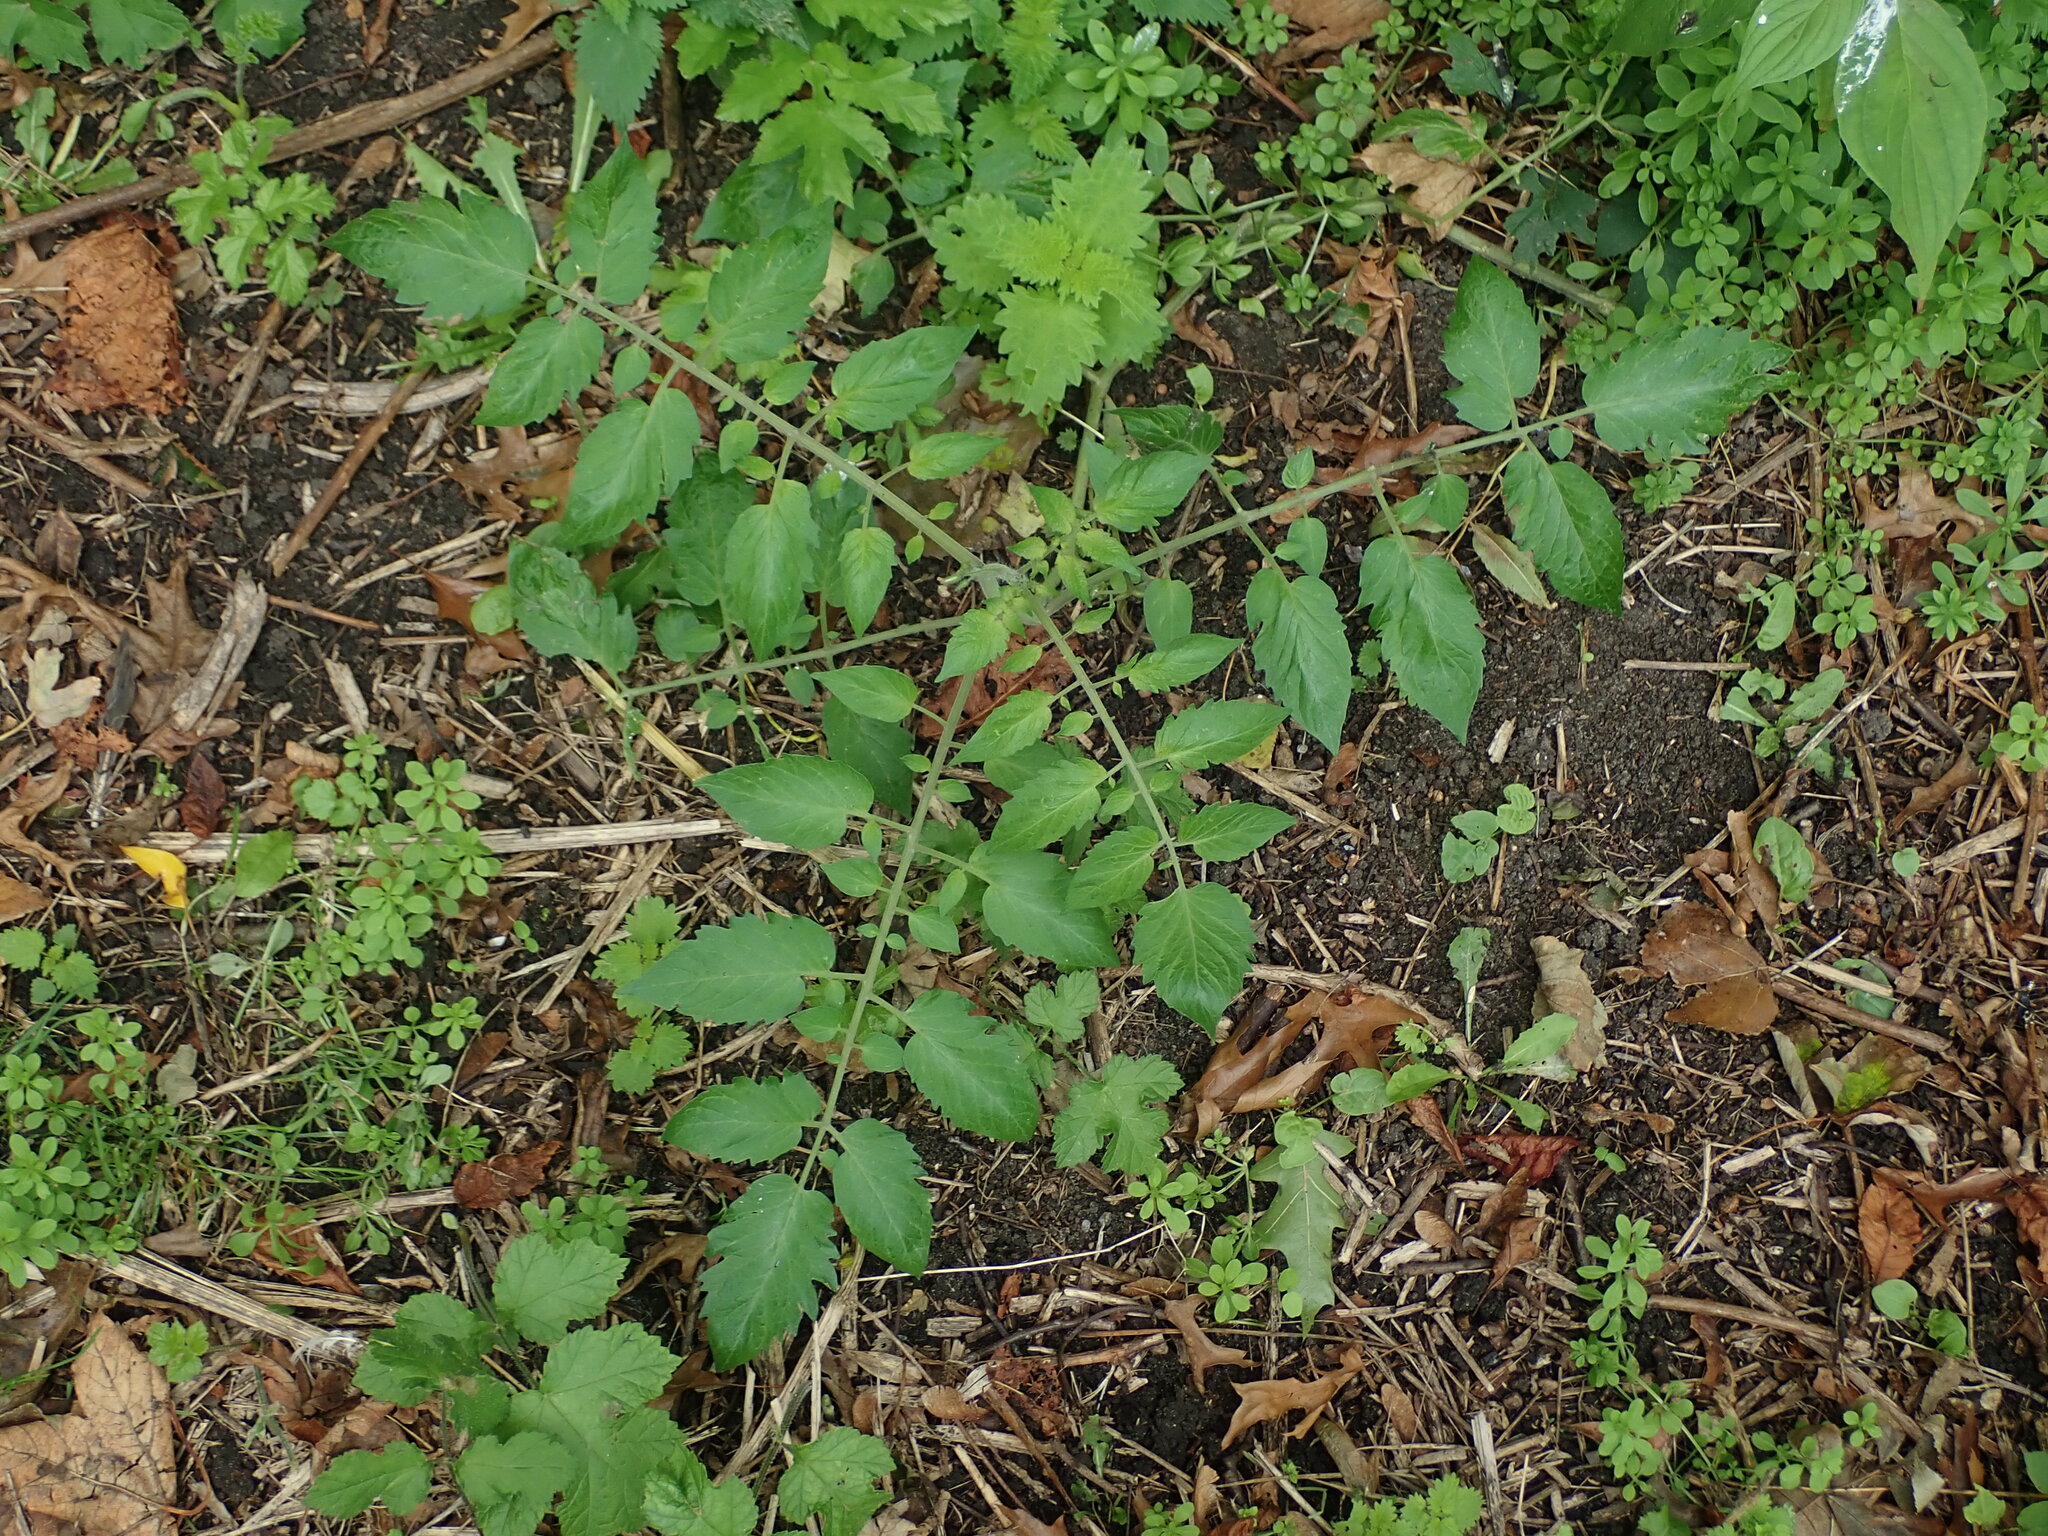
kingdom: Plantae
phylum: Tracheophyta
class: Magnoliopsida
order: Solanales
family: Solanaceae
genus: Solanum
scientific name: Solanum lycopersicum
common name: Garden tomato
